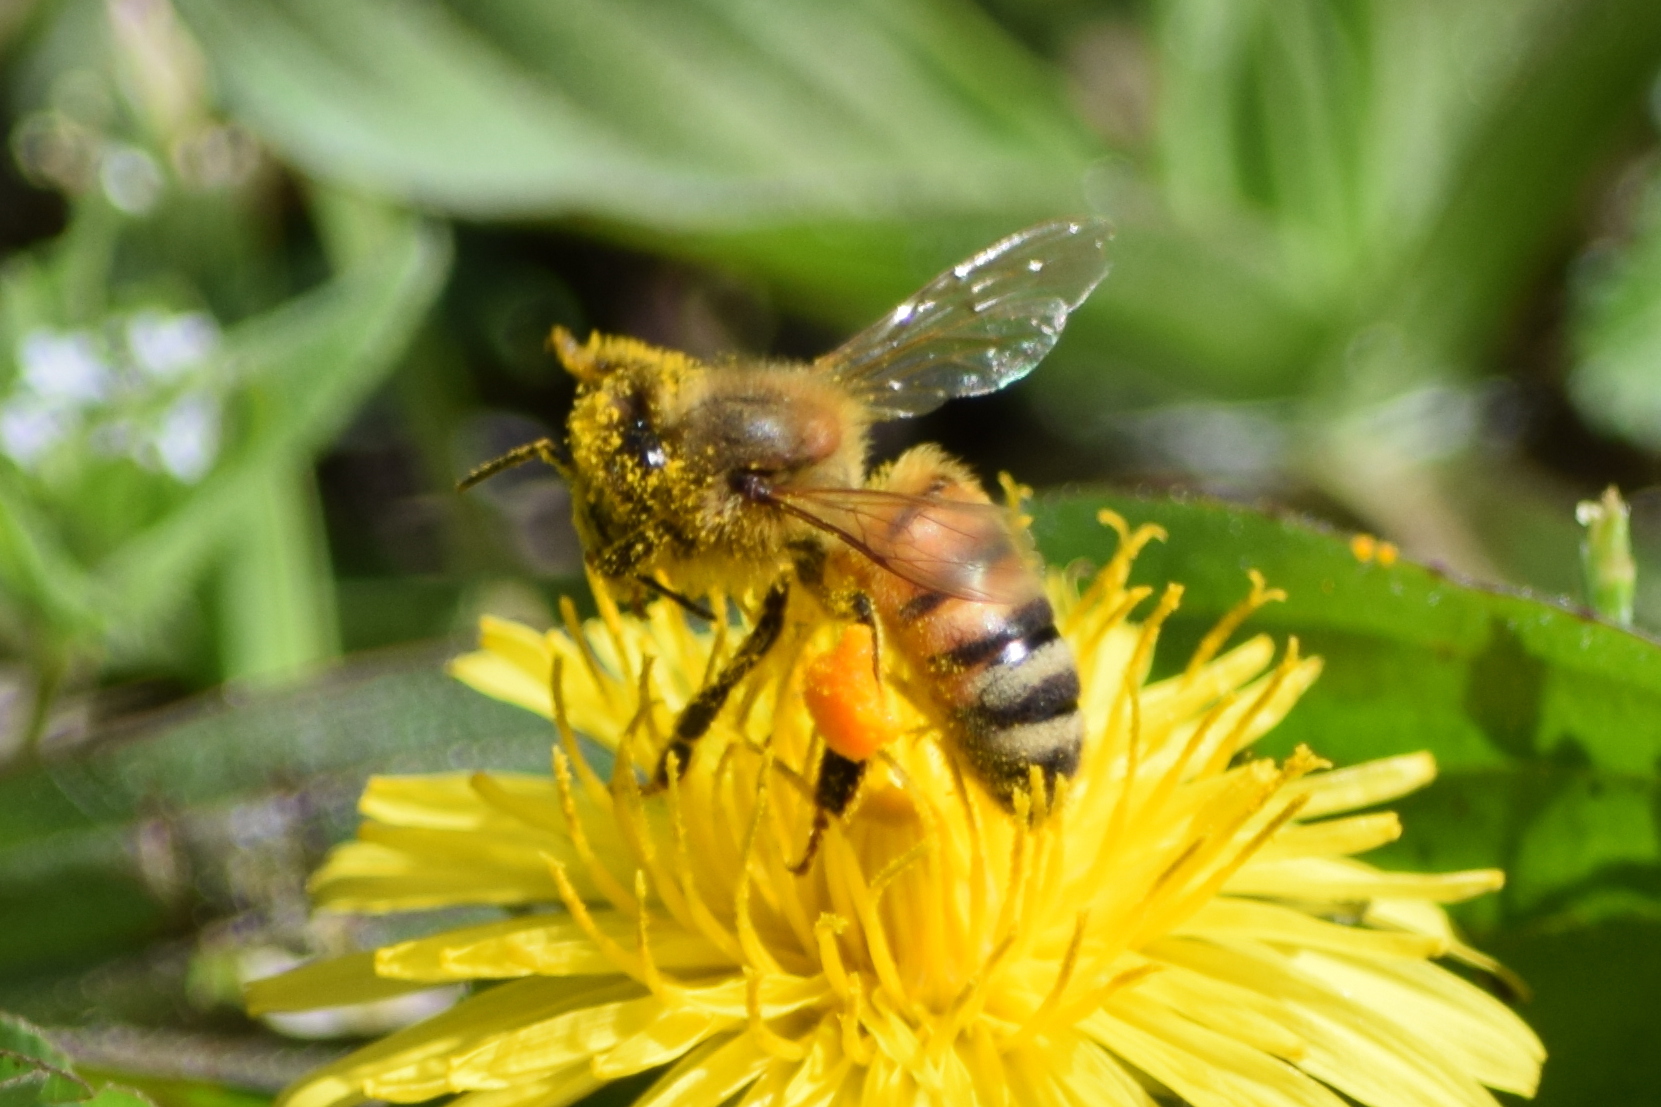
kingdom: Animalia
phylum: Arthropoda
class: Insecta
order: Hymenoptera
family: Apidae
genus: Apis
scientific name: Apis mellifera
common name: Honey bee
